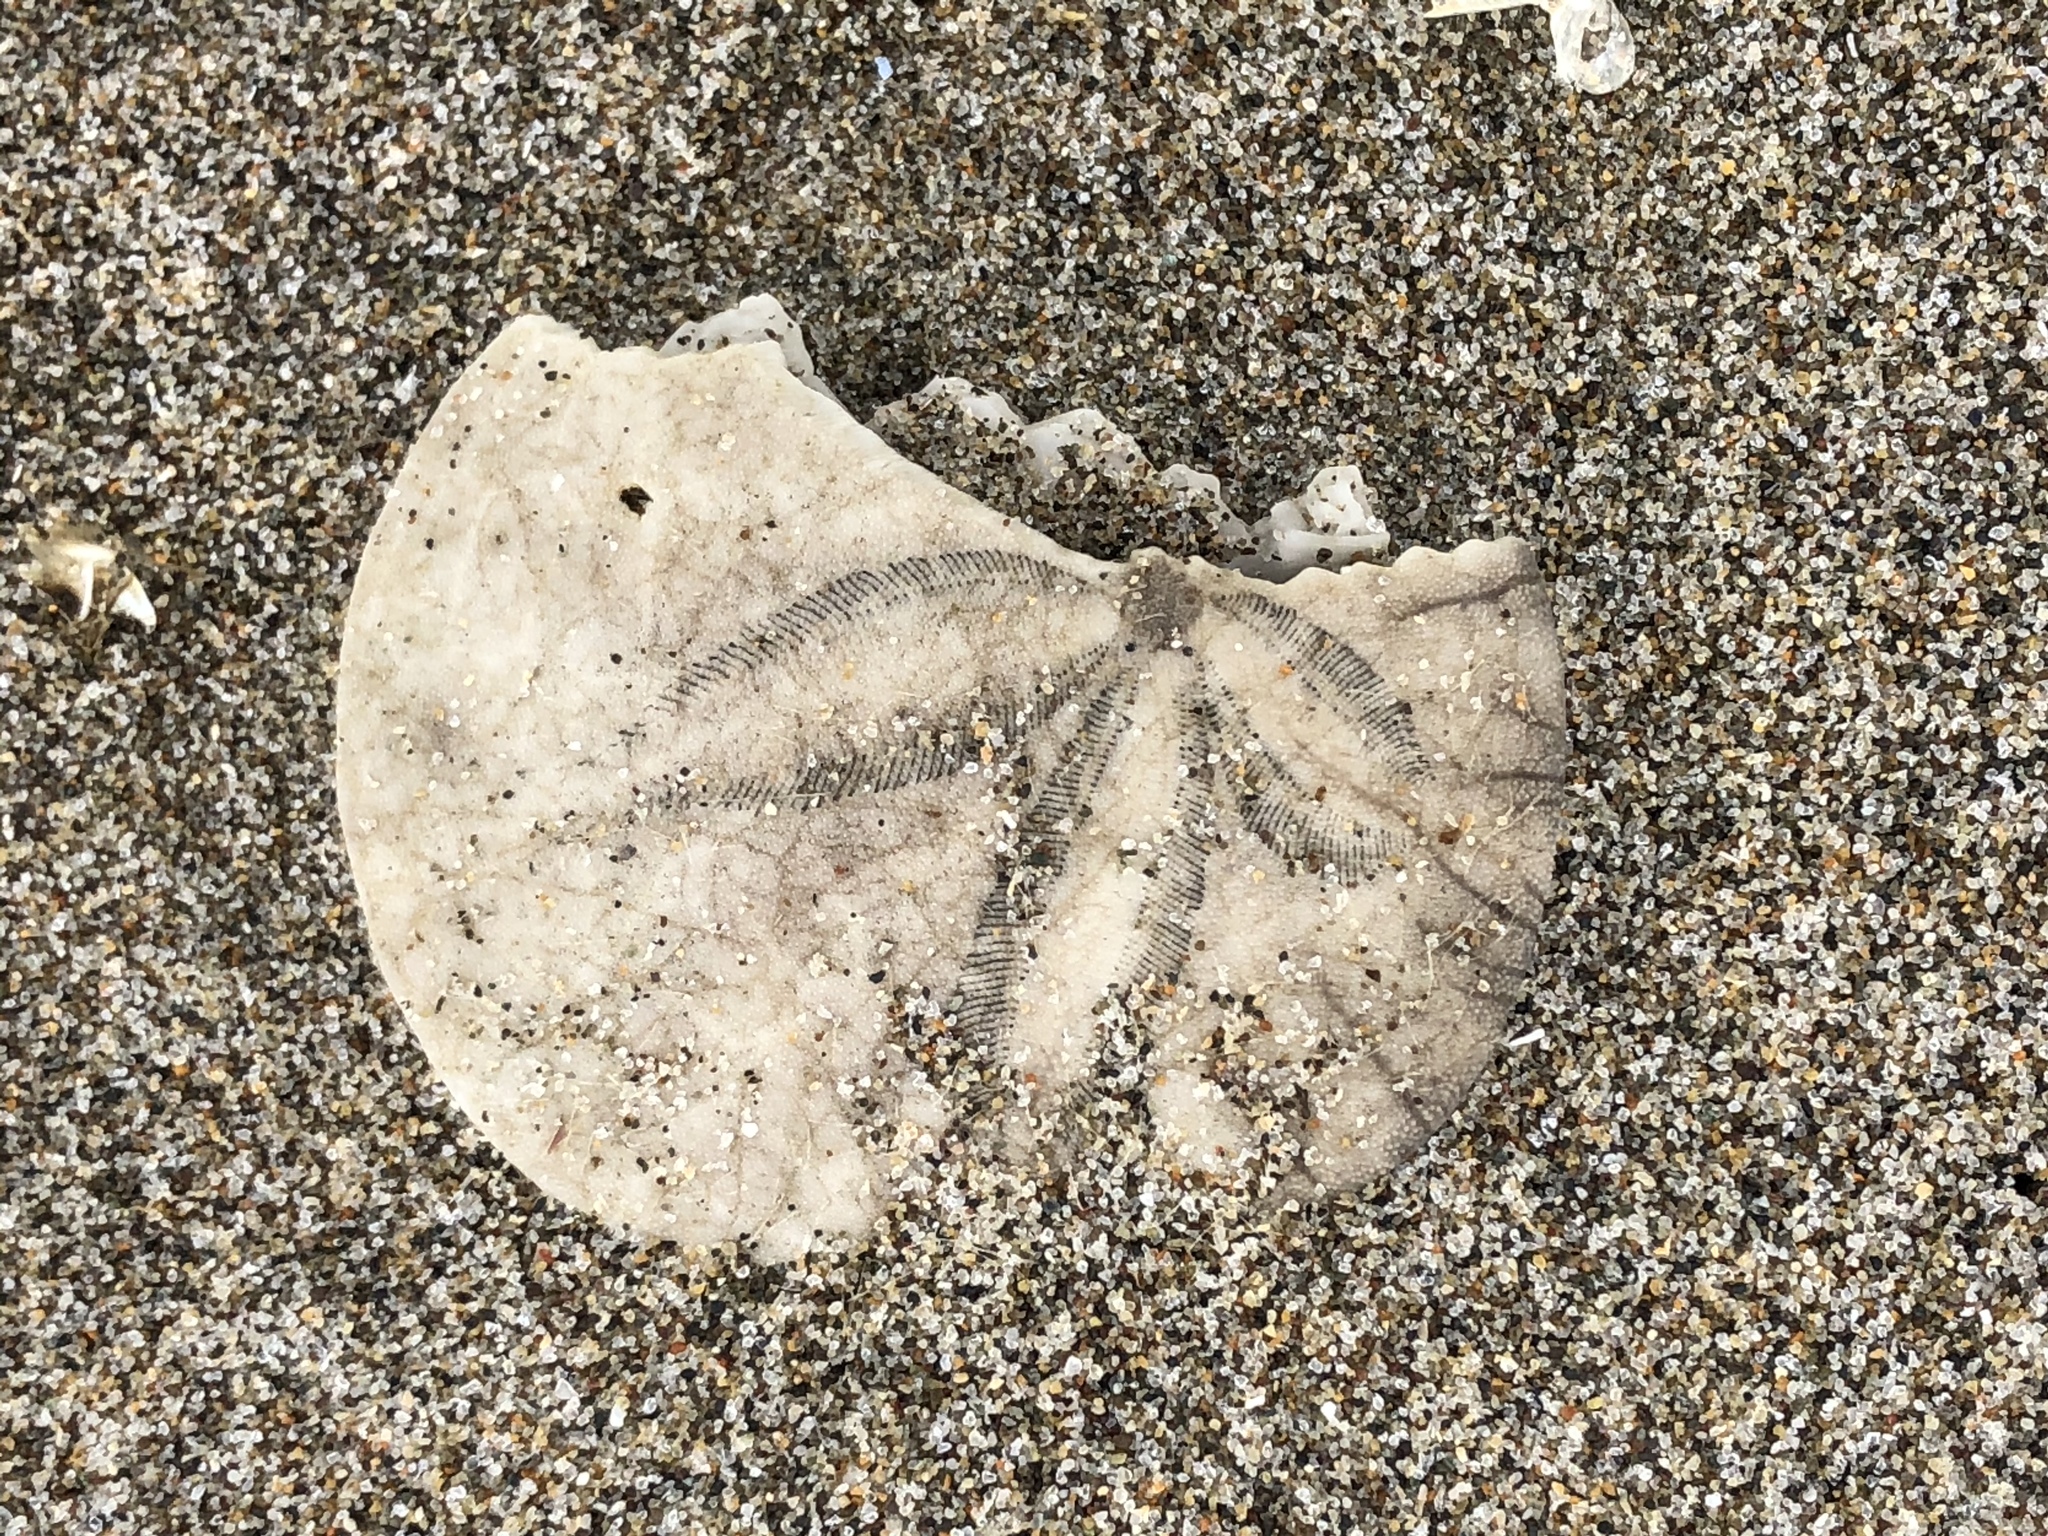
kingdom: Animalia
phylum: Echinodermata
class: Echinoidea
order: Echinolampadacea
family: Dendrasteridae
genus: Dendraster
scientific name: Dendraster excentricus
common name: Eccentric sand dollar sea urchin
